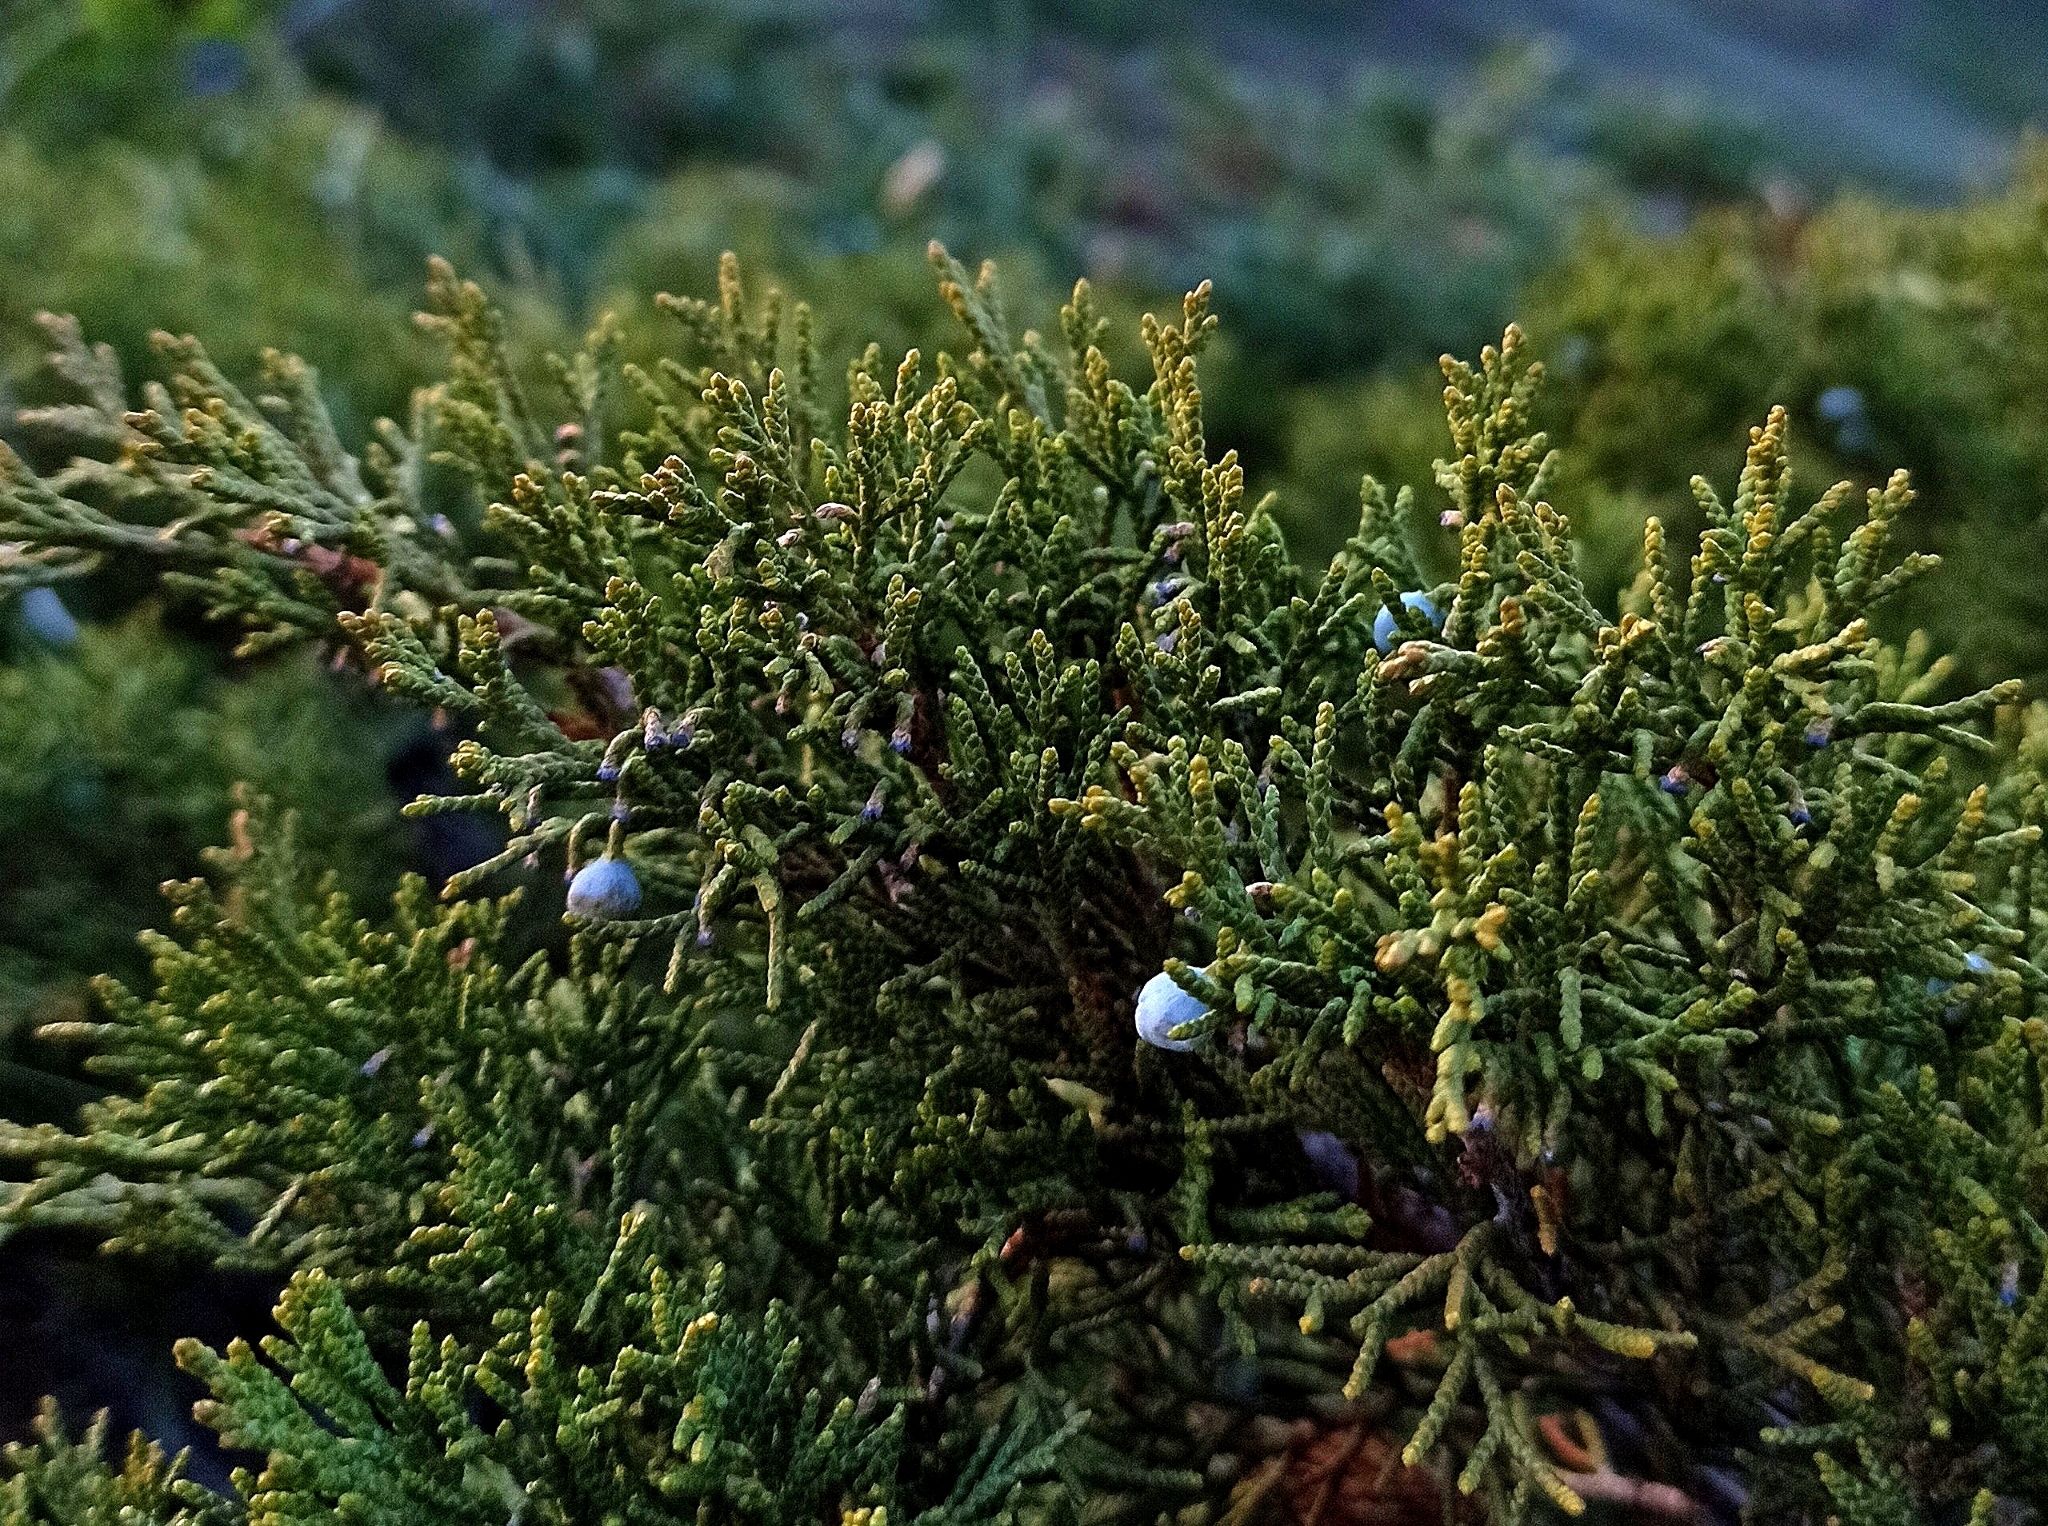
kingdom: Plantae
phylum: Tracheophyta
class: Pinopsida
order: Pinales
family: Cupressaceae
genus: Juniperus
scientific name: Juniperus sabina
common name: Savin
